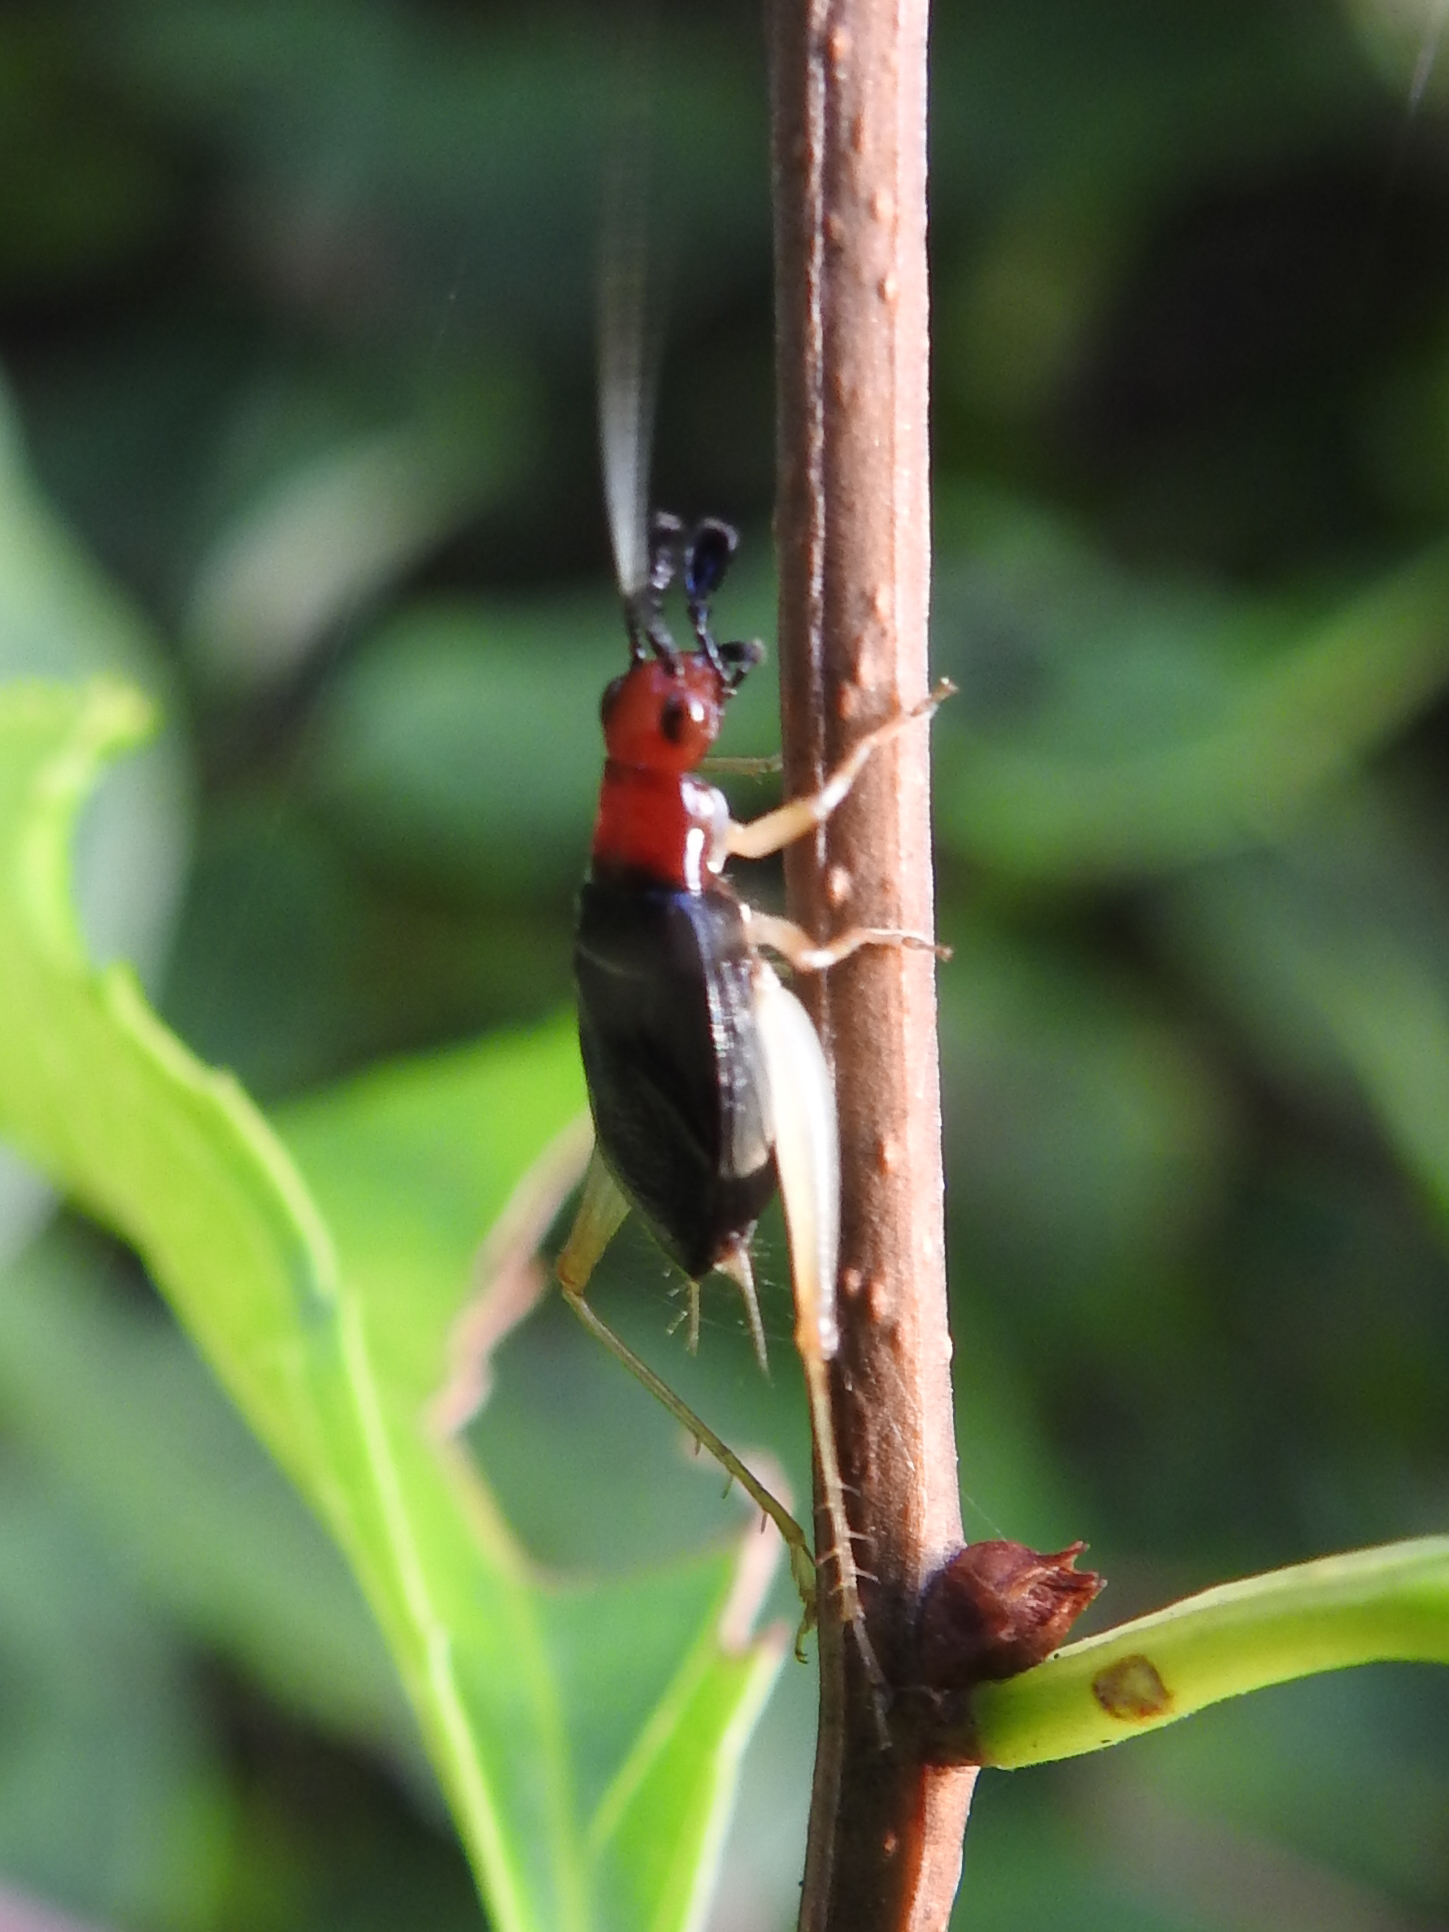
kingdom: Animalia
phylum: Arthropoda
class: Insecta
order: Orthoptera
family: Trigonidiidae
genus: Phyllopalpus
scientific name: Phyllopalpus pulchellus
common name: Handsome trig
